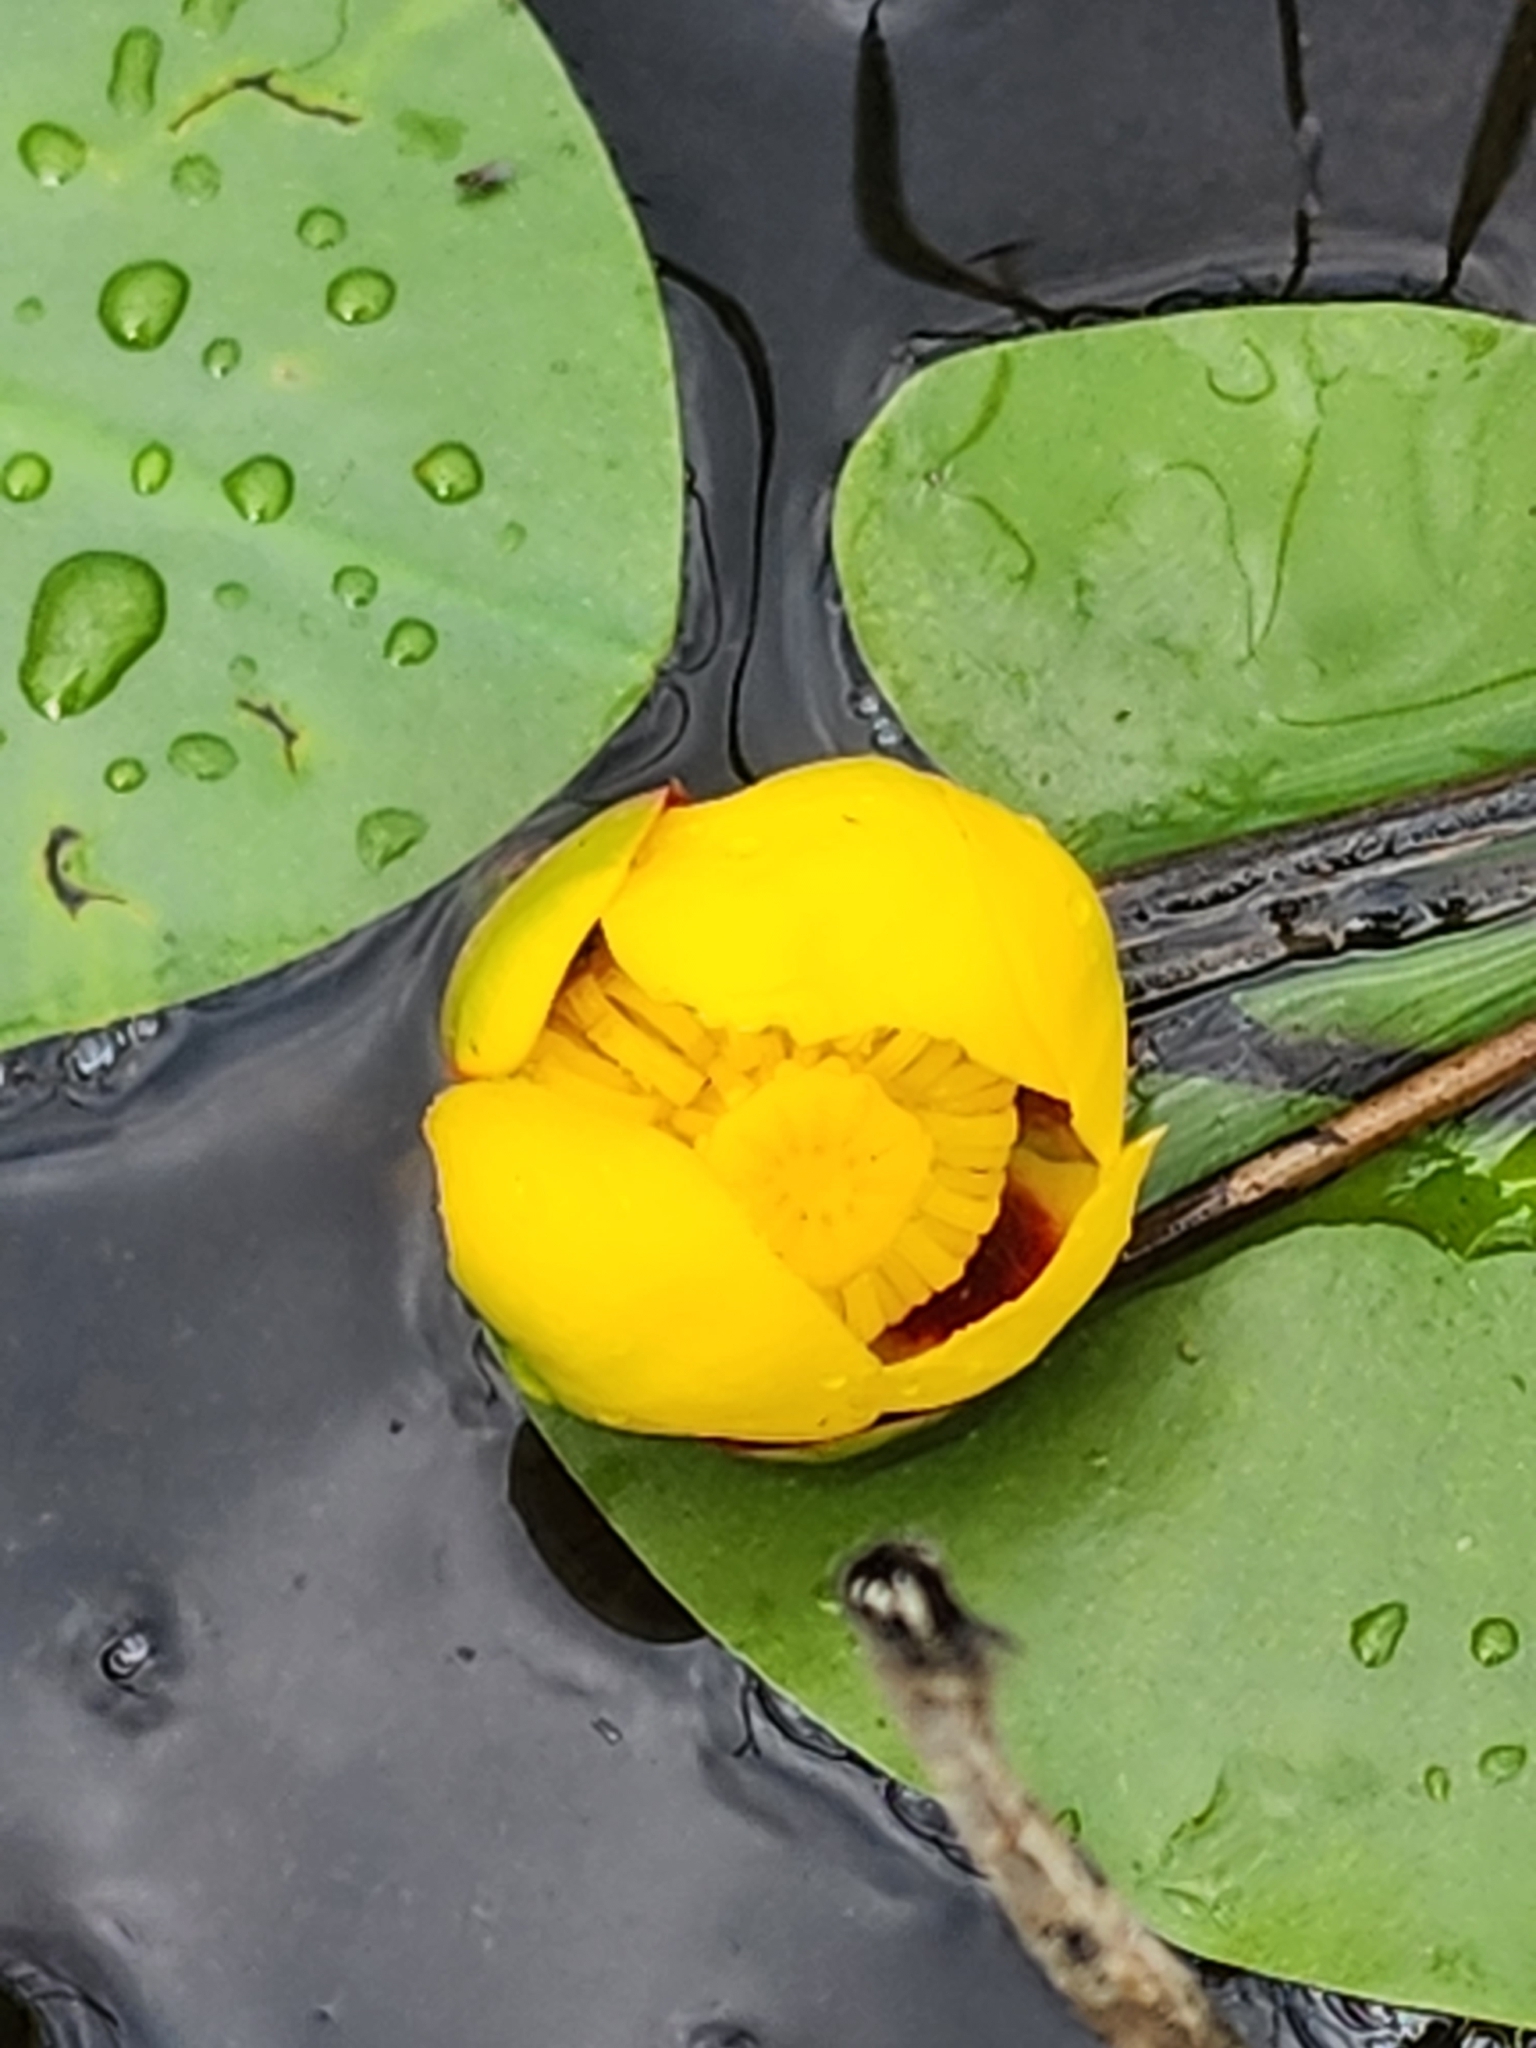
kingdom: Plantae
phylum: Tracheophyta
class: Magnoliopsida
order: Nymphaeales
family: Nymphaeaceae
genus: Nuphar
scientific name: Nuphar variegata
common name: Beaver-root
